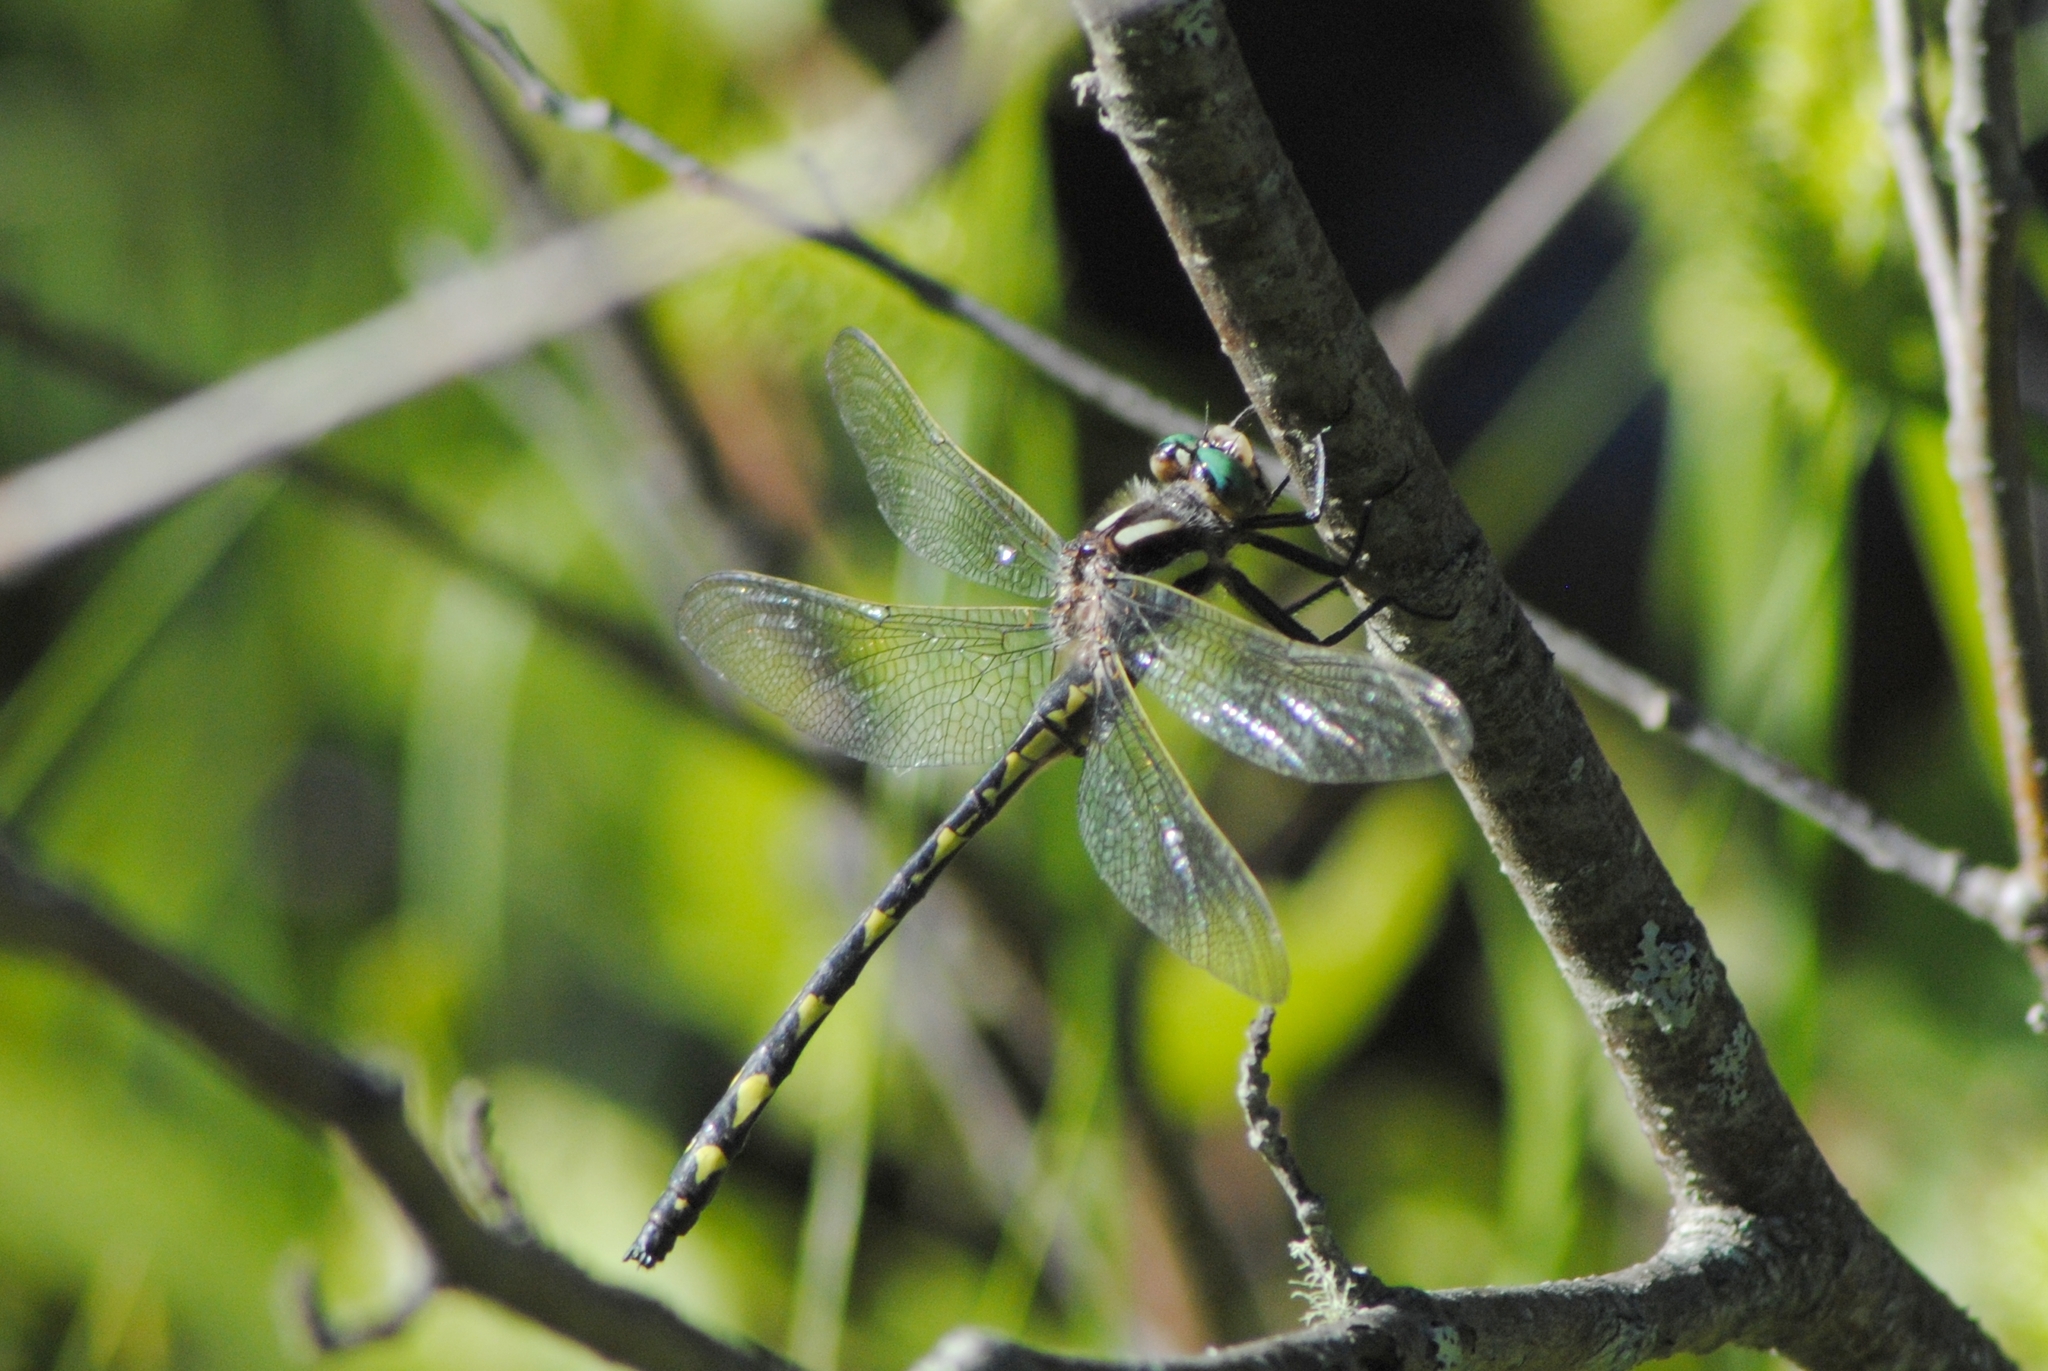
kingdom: Animalia
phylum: Arthropoda
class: Insecta
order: Odonata
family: Cordulegastridae
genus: Cordulegaster
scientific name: Cordulegaster diastatops
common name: Delta-spotted spiketail
